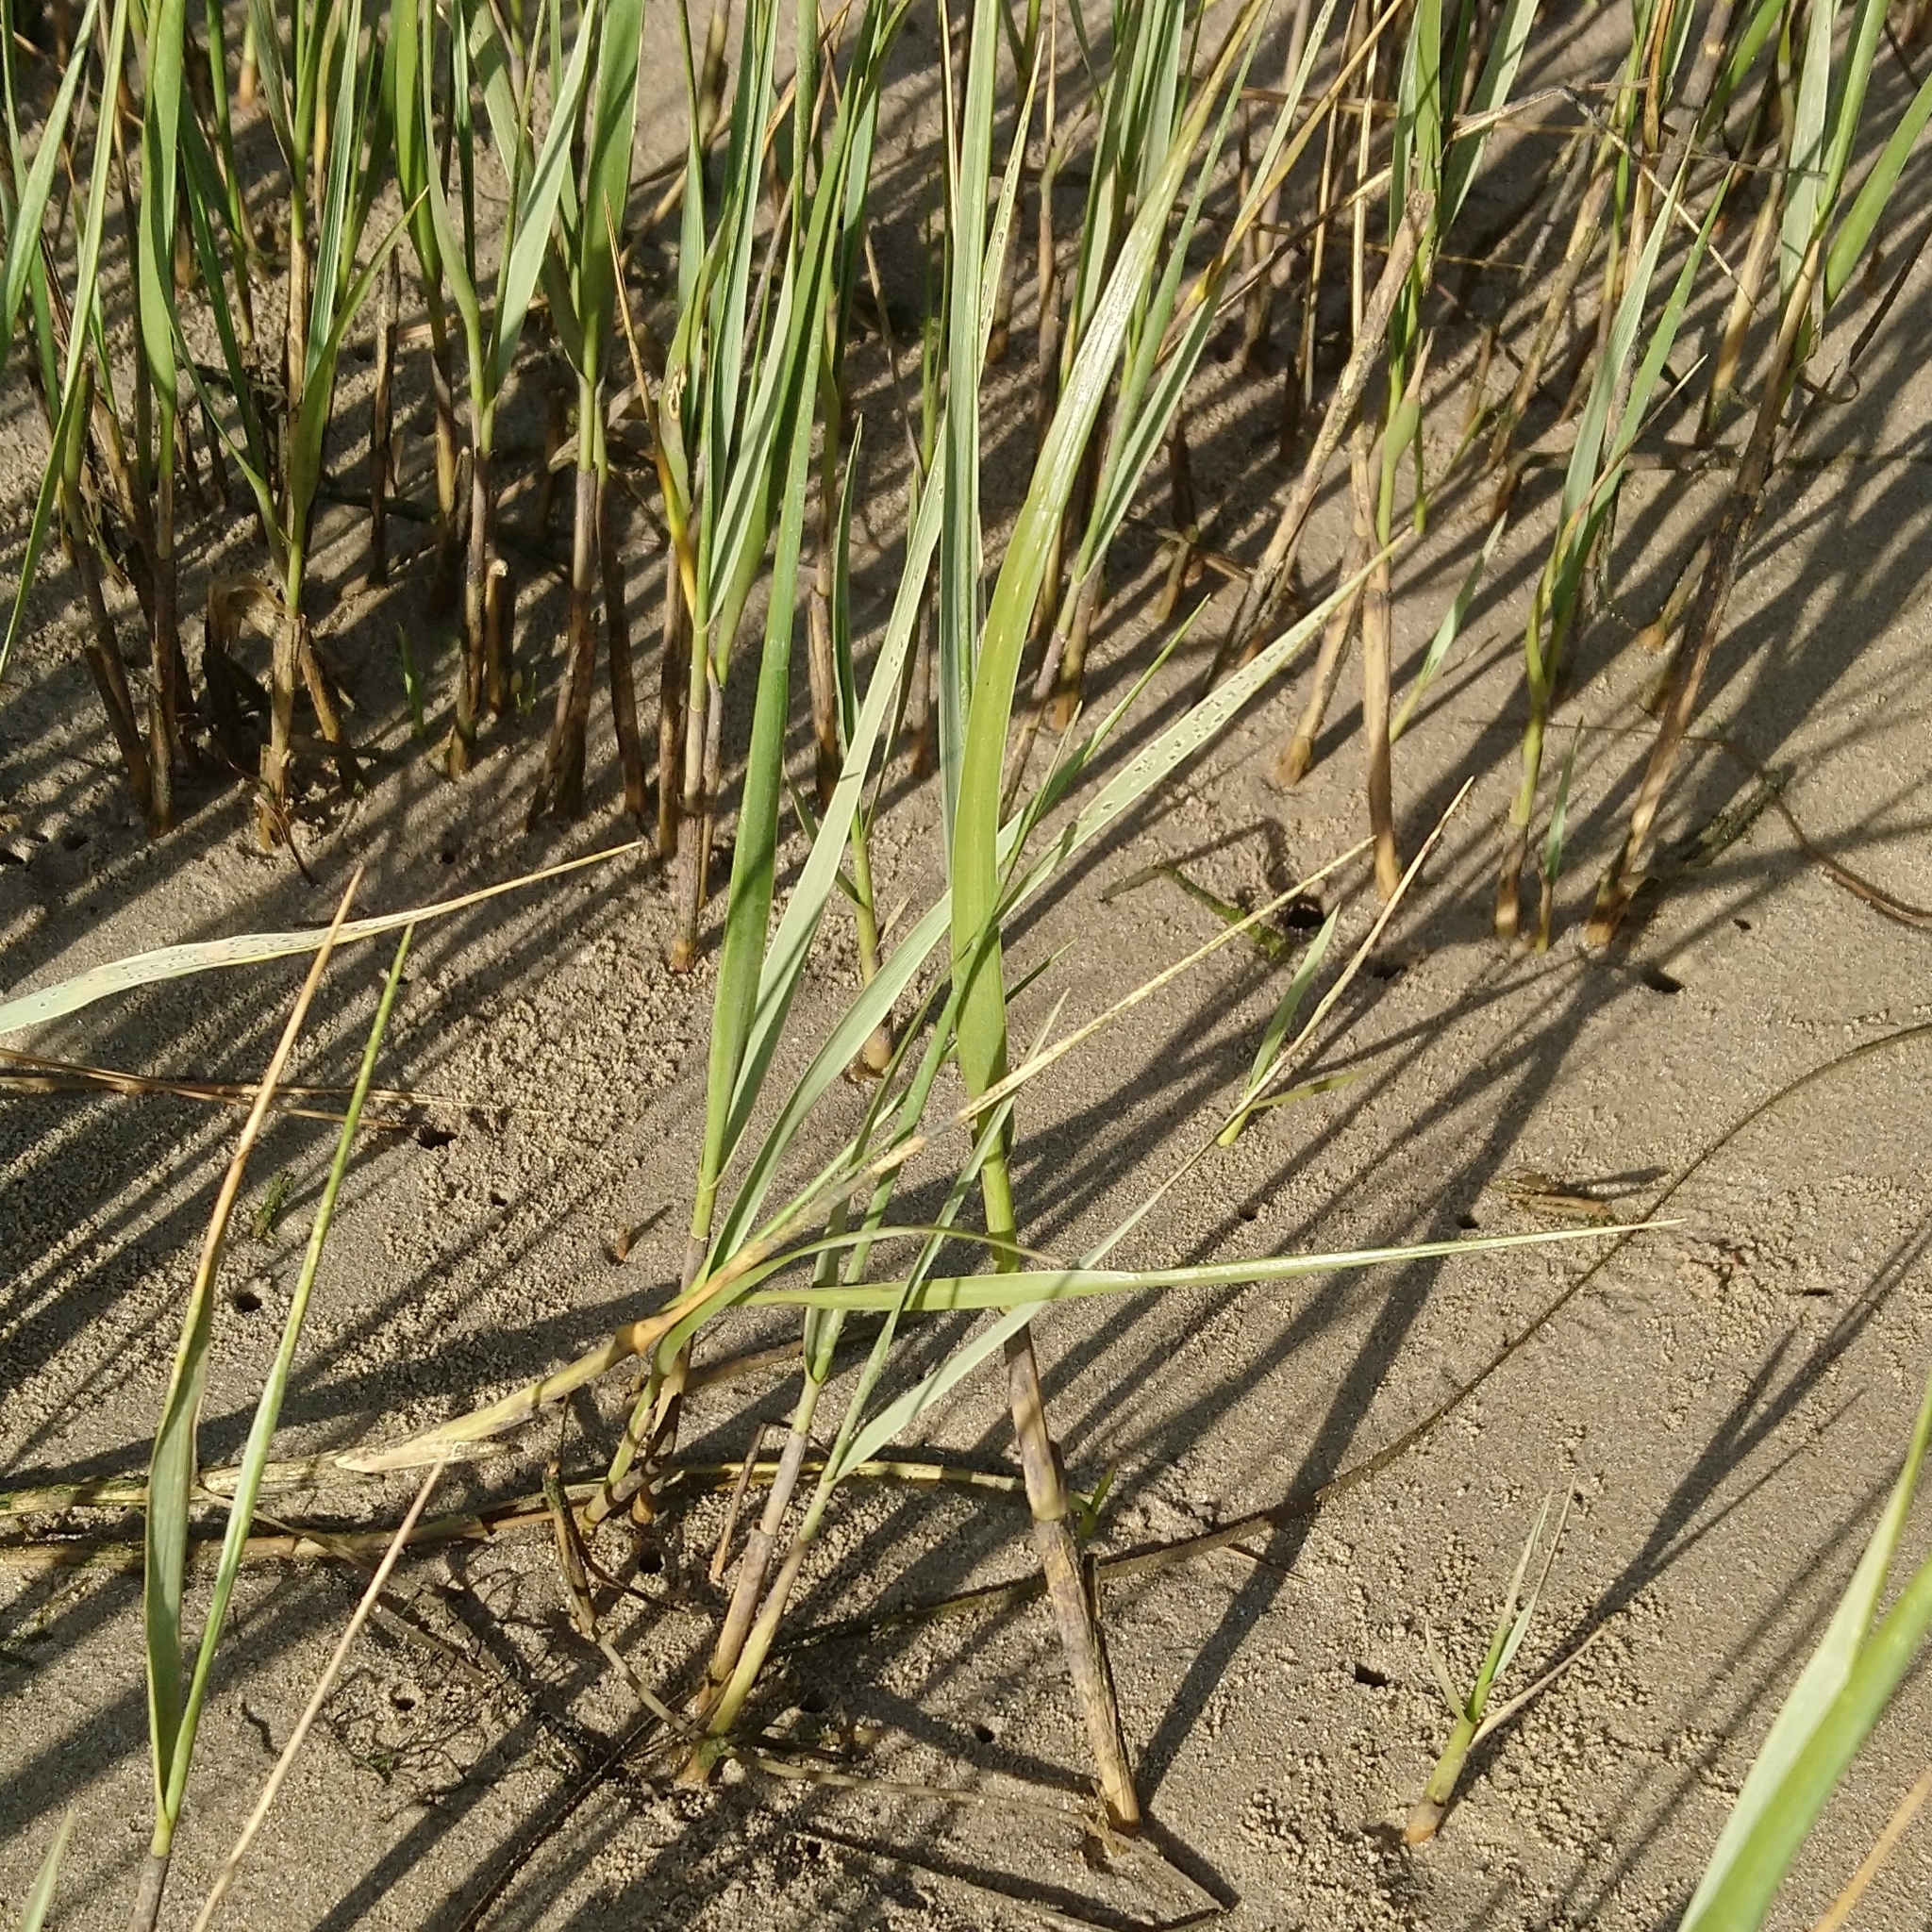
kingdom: Plantae
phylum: Tracheophyta
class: Liliopsida
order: Poales
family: Poaceae
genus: Sporobolus
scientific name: Sporobolus maritimus
